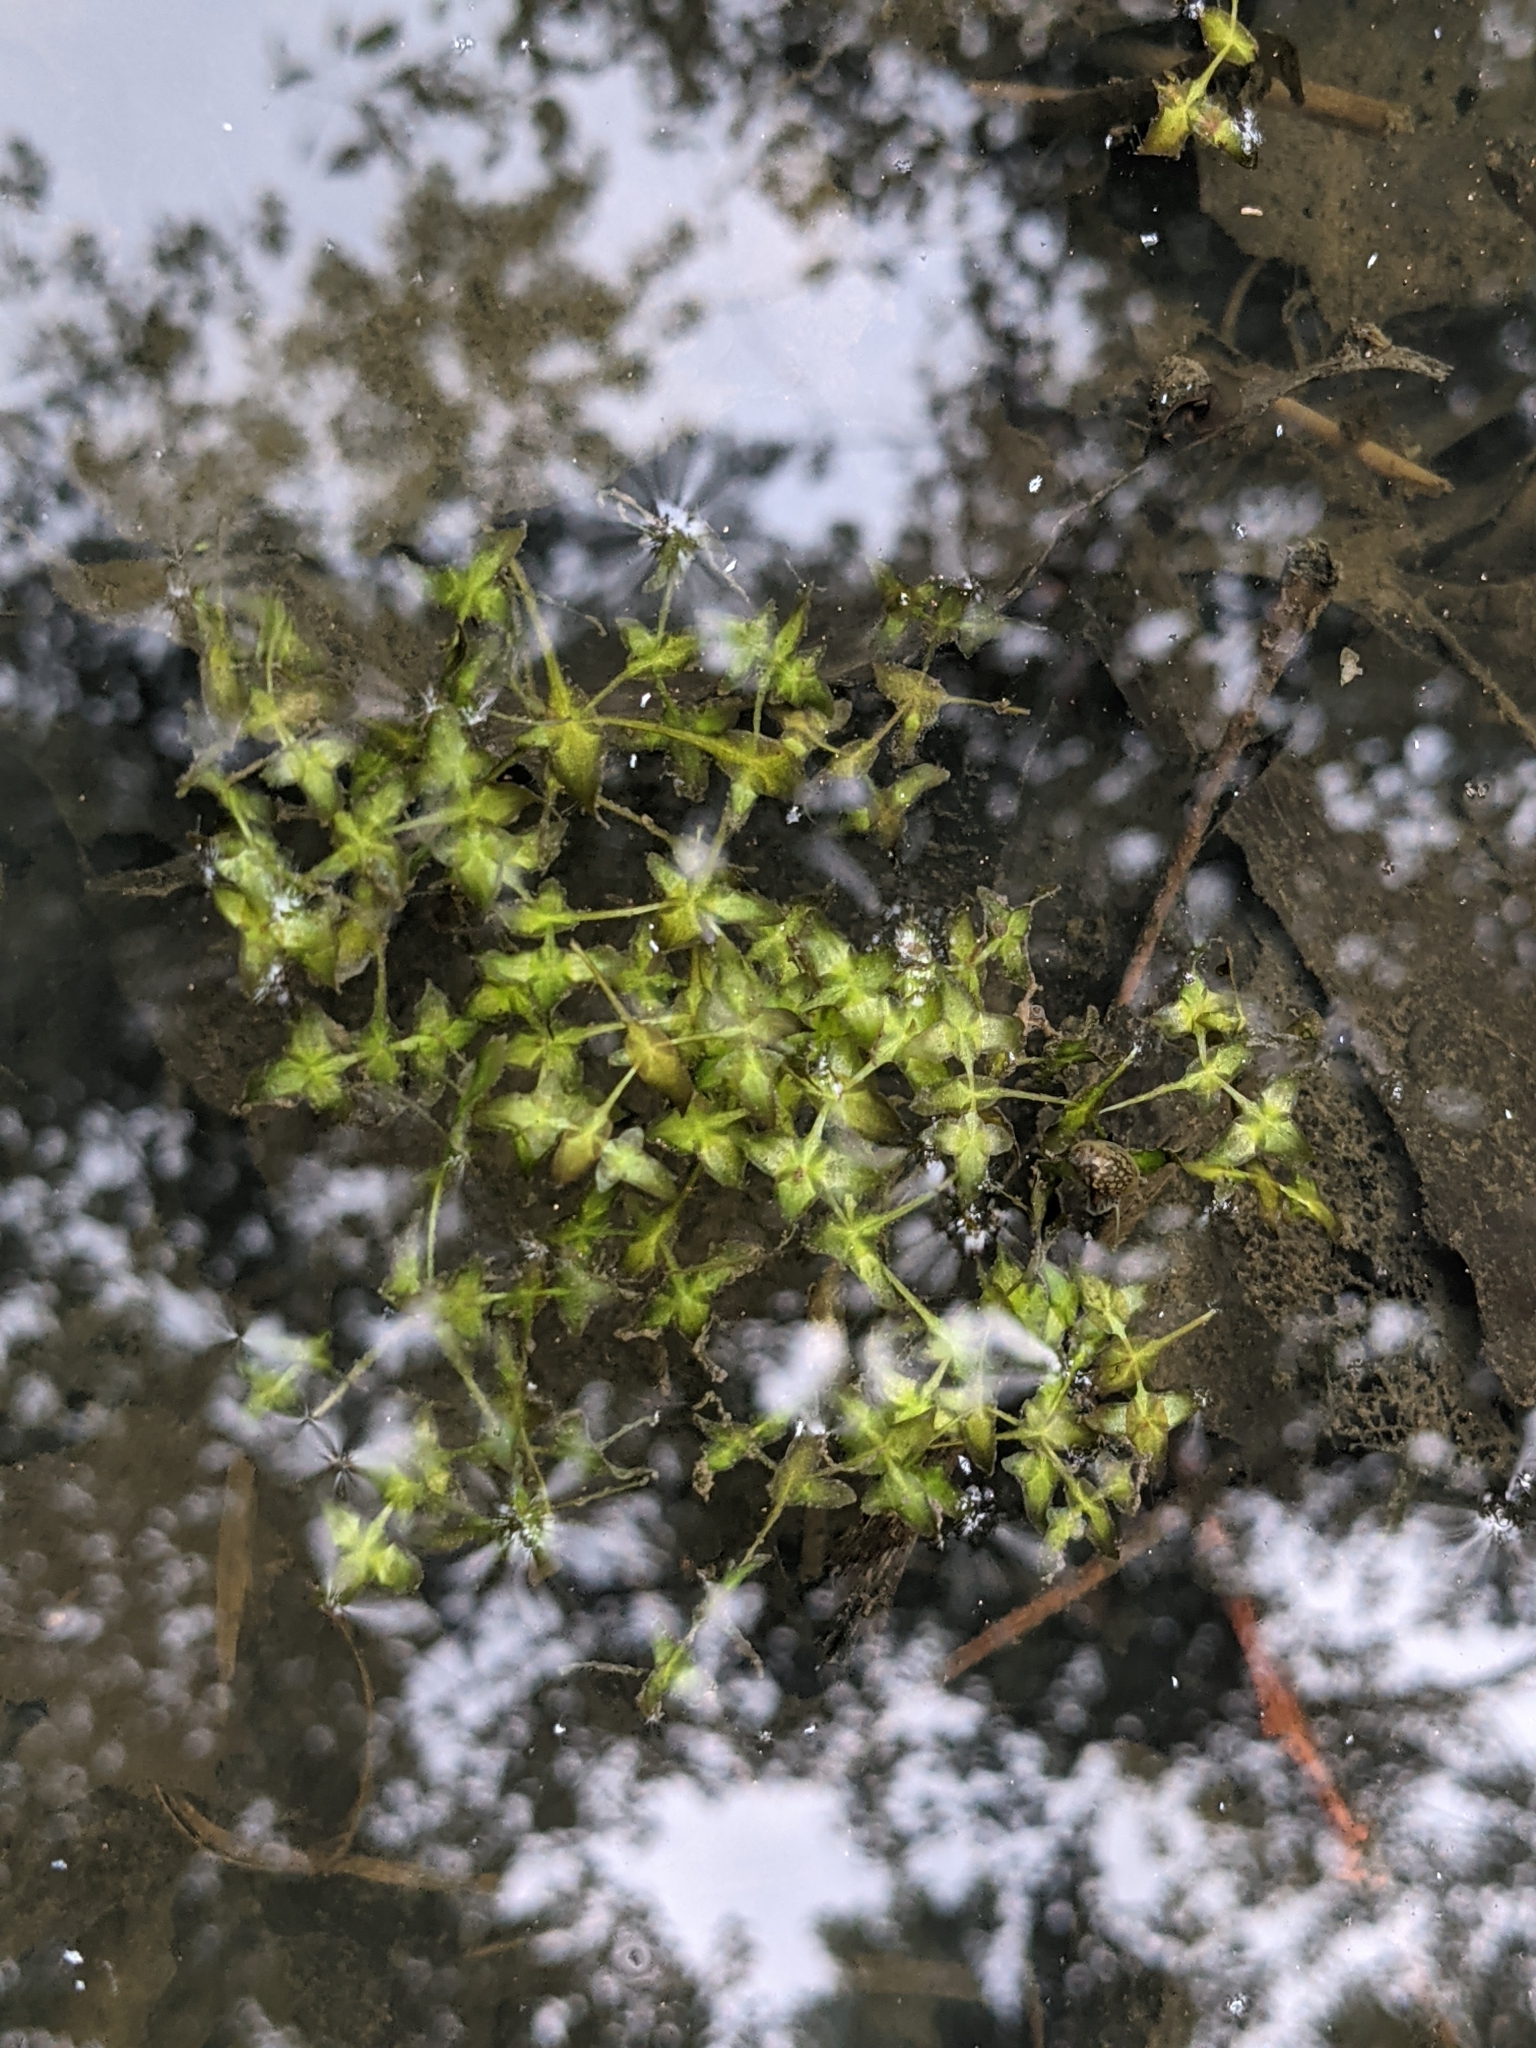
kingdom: Plantae
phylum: Tracheophyta
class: Liliopsida
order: Alismatales
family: Araceae
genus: Lemna
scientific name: Lemna trisulca
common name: Ivy-leaved duckweed
